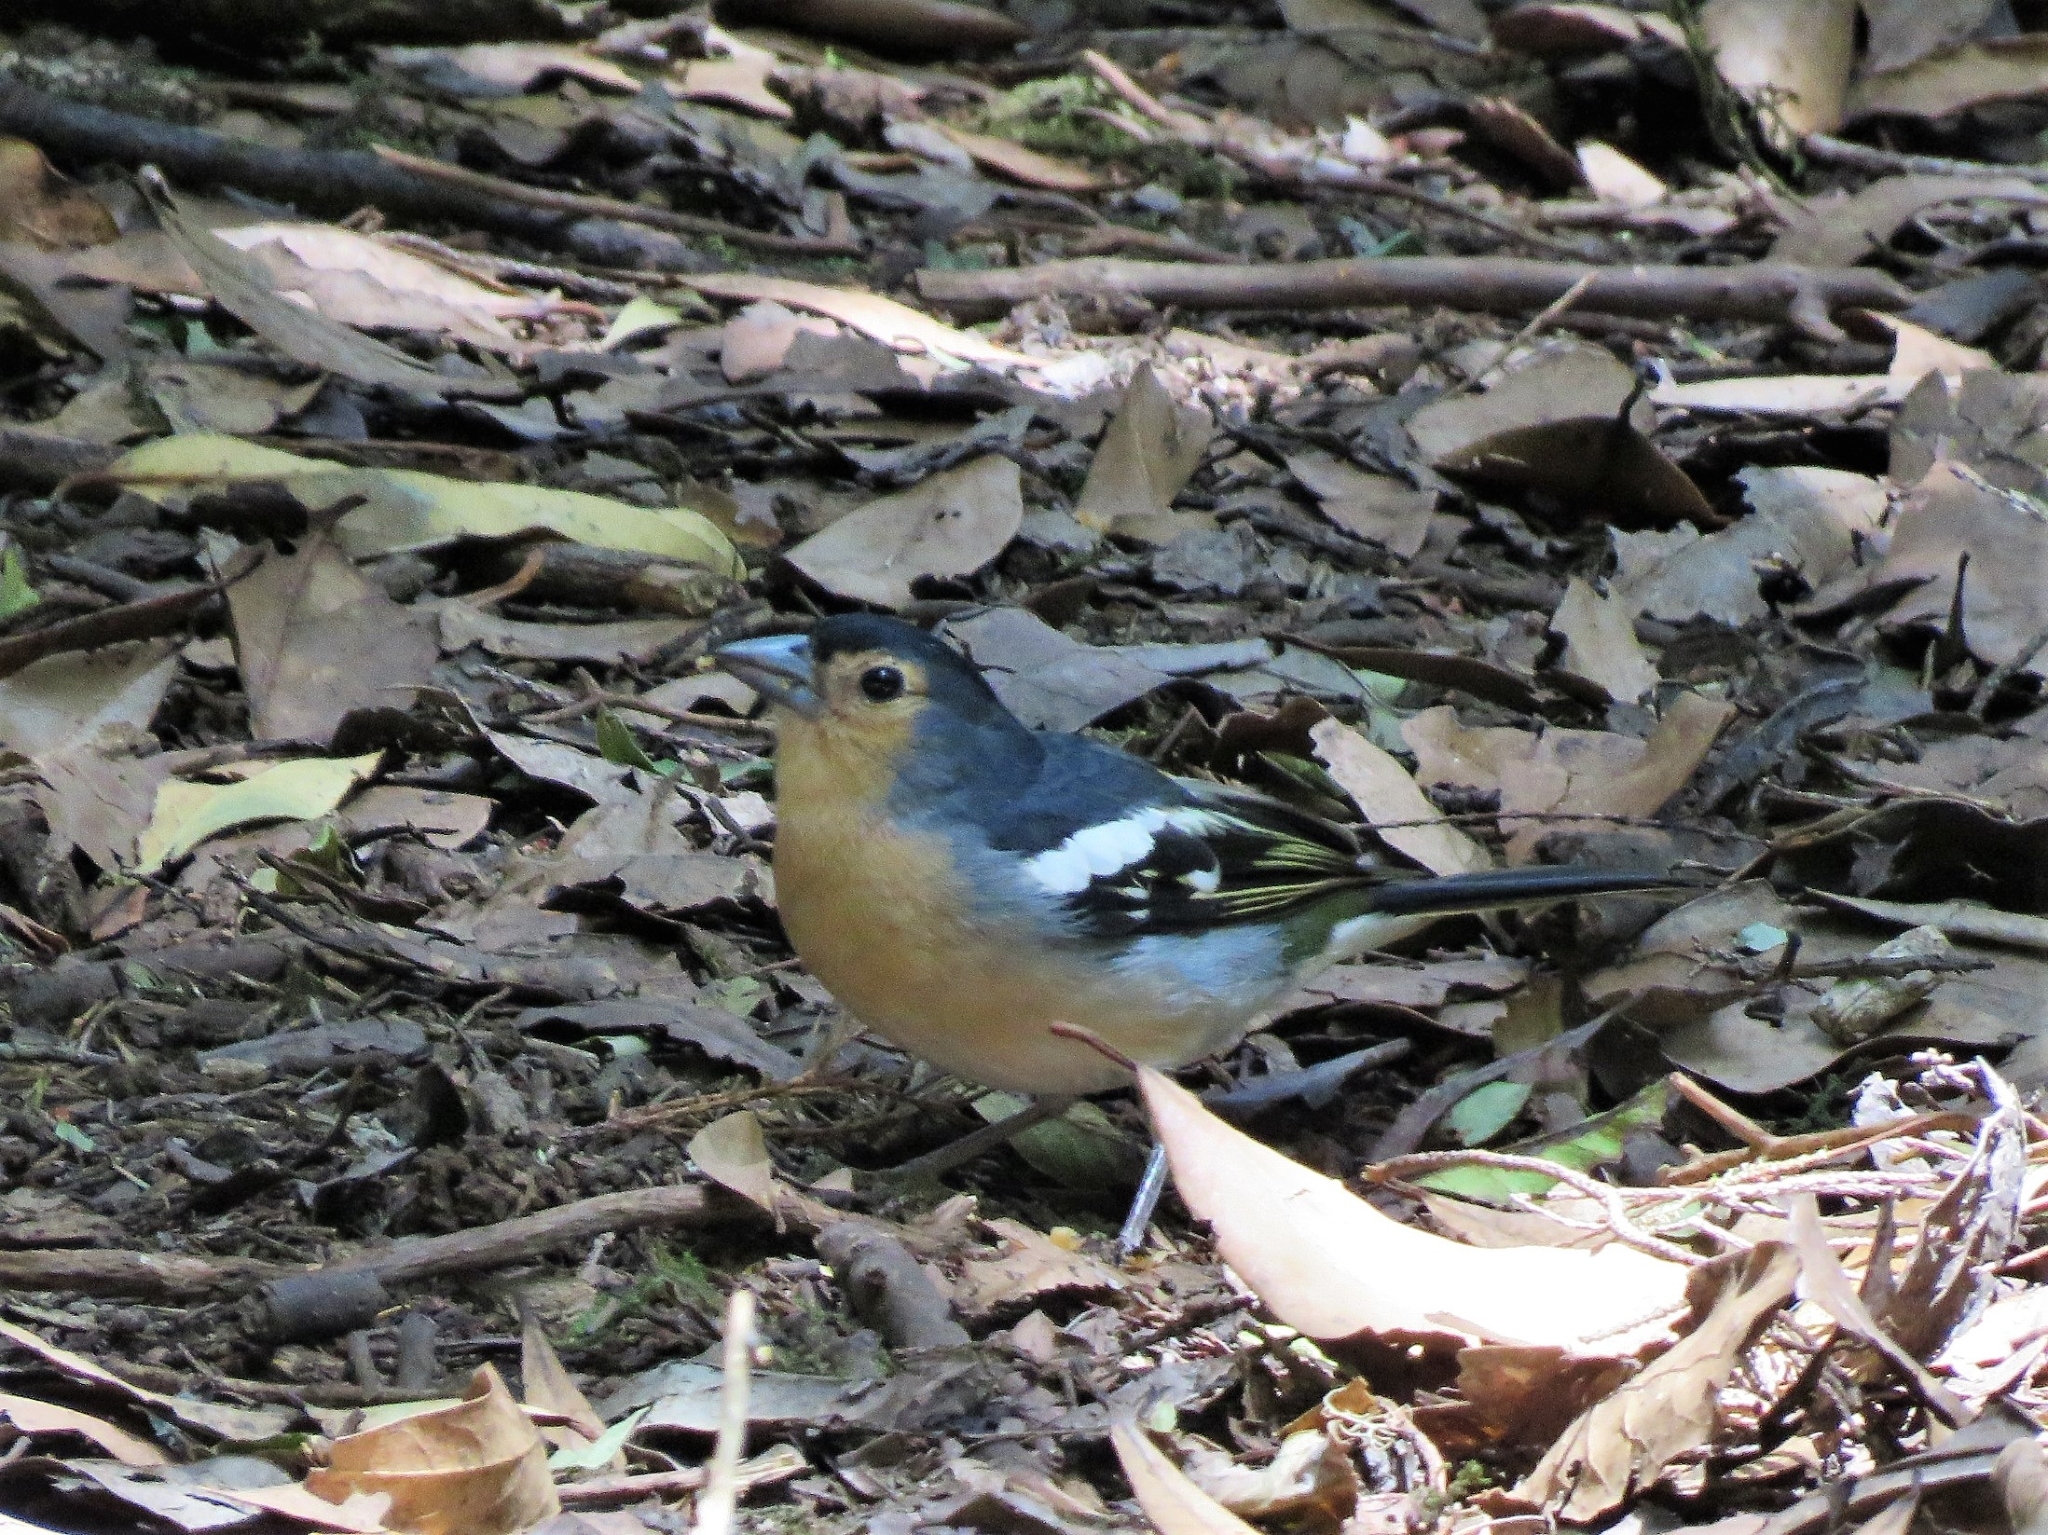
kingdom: Animalia
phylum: Chordata
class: Aves
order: Passeriformes
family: Fringillidae
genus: Fringilla
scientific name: Fringilla canariensis
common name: Canary islands chaffinch
